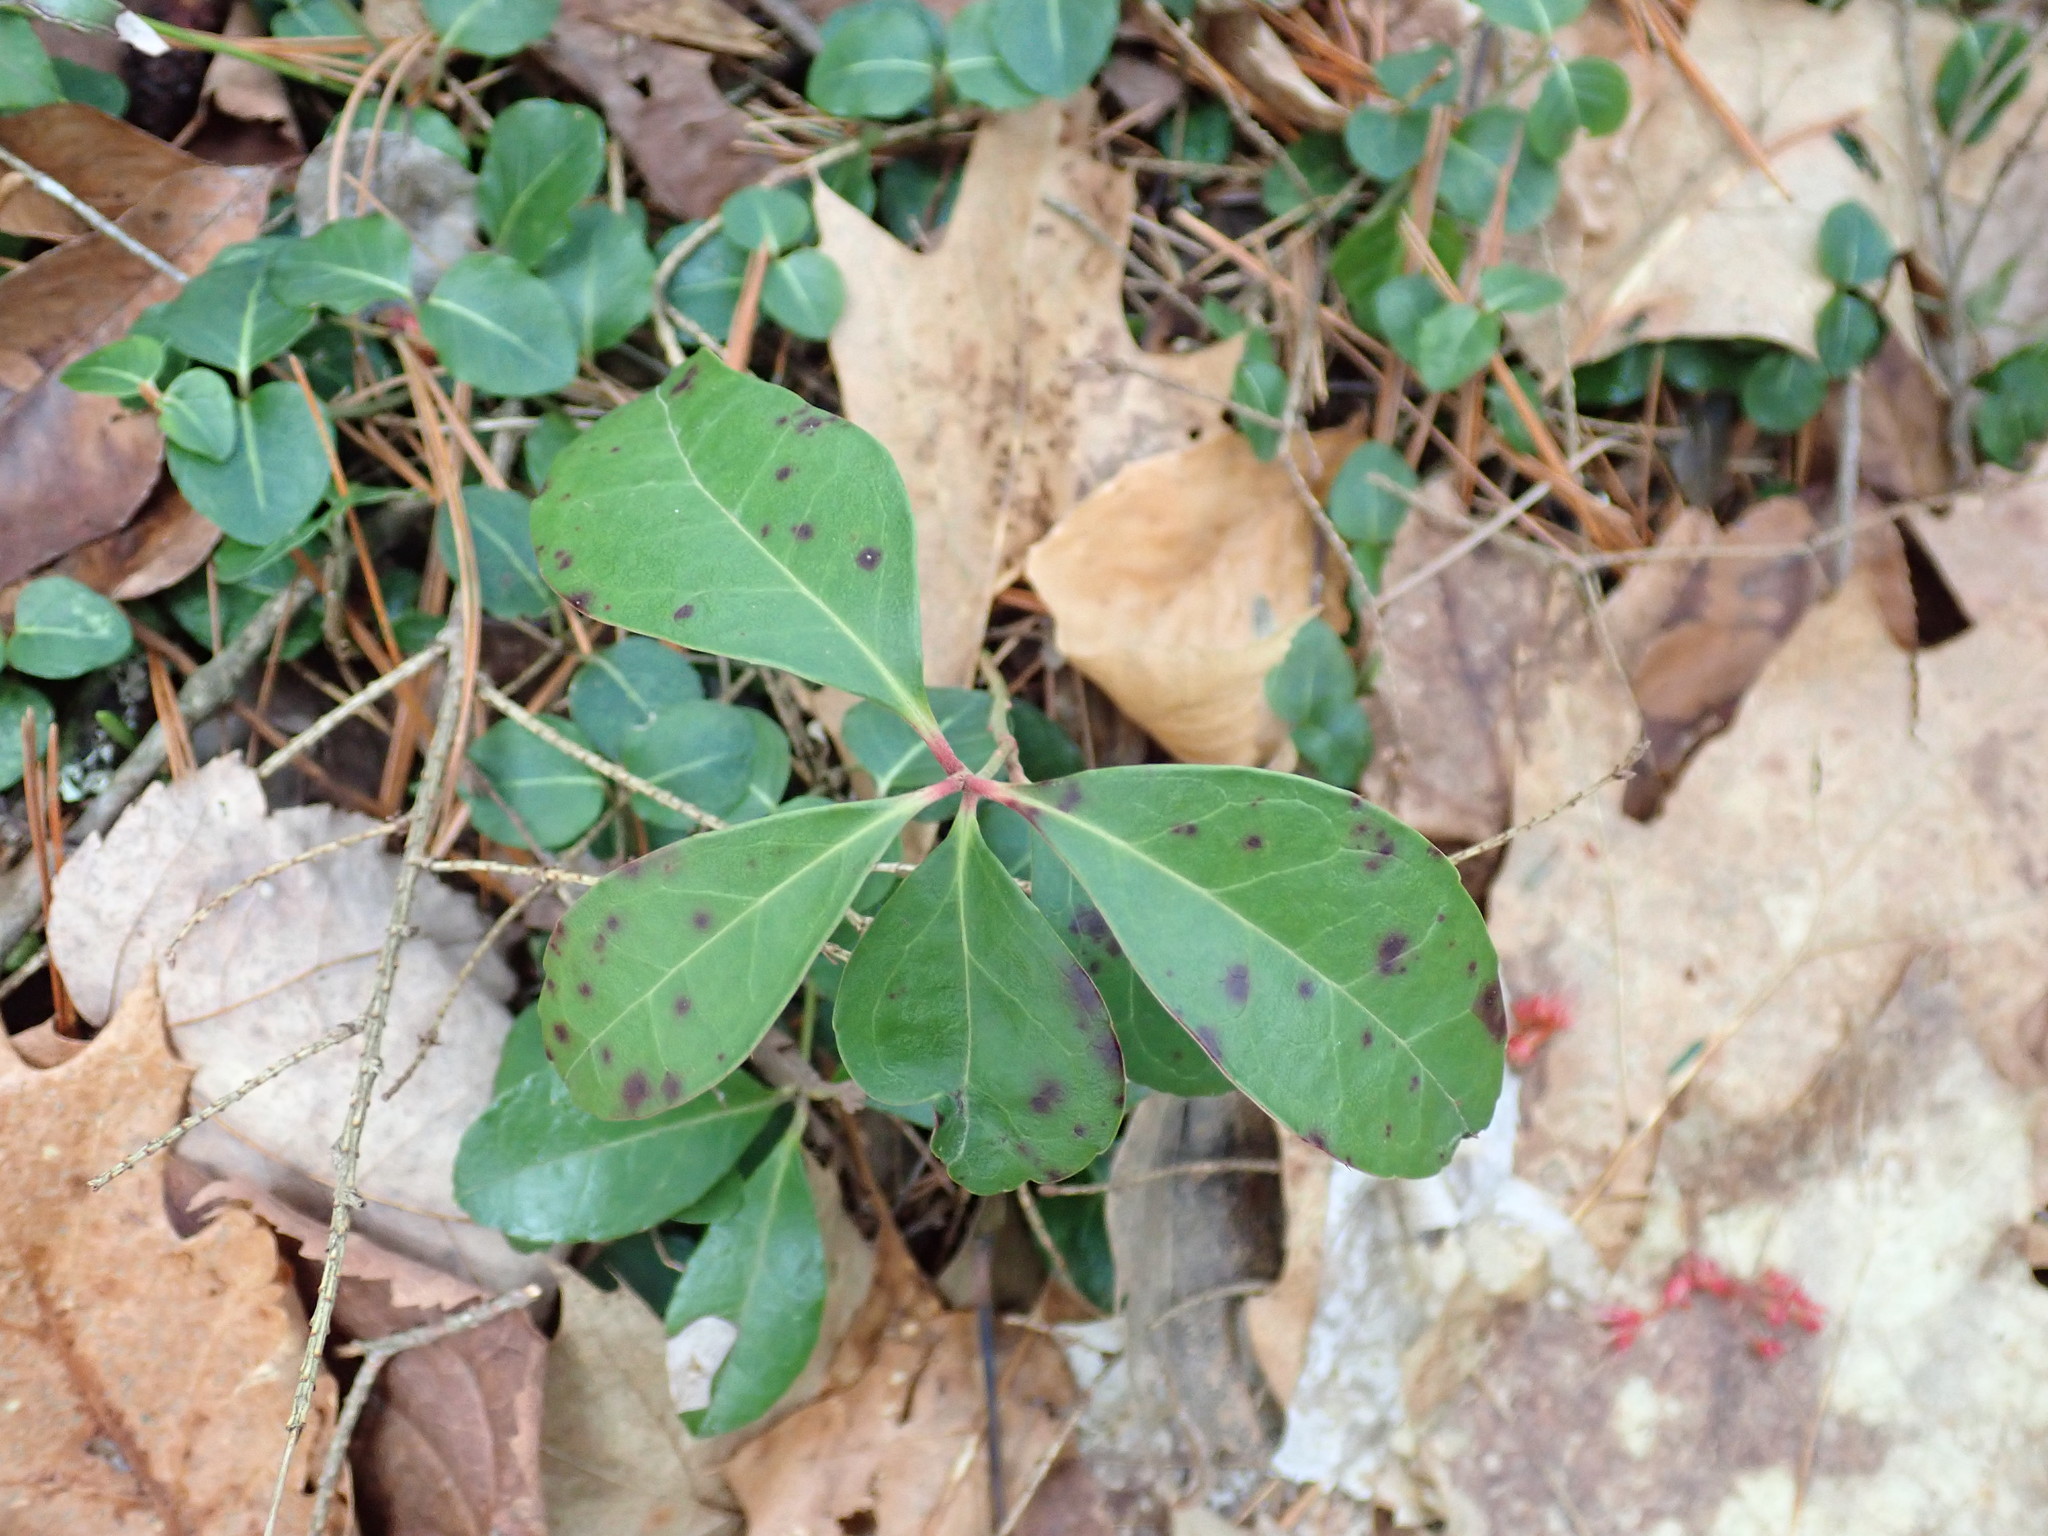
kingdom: Plantae
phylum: Tracheophyta
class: Magnoliopsida
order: Ericales
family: Ericaceae
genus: Gaultheria
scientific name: Gaultheria procumbens
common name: Checkerberry
